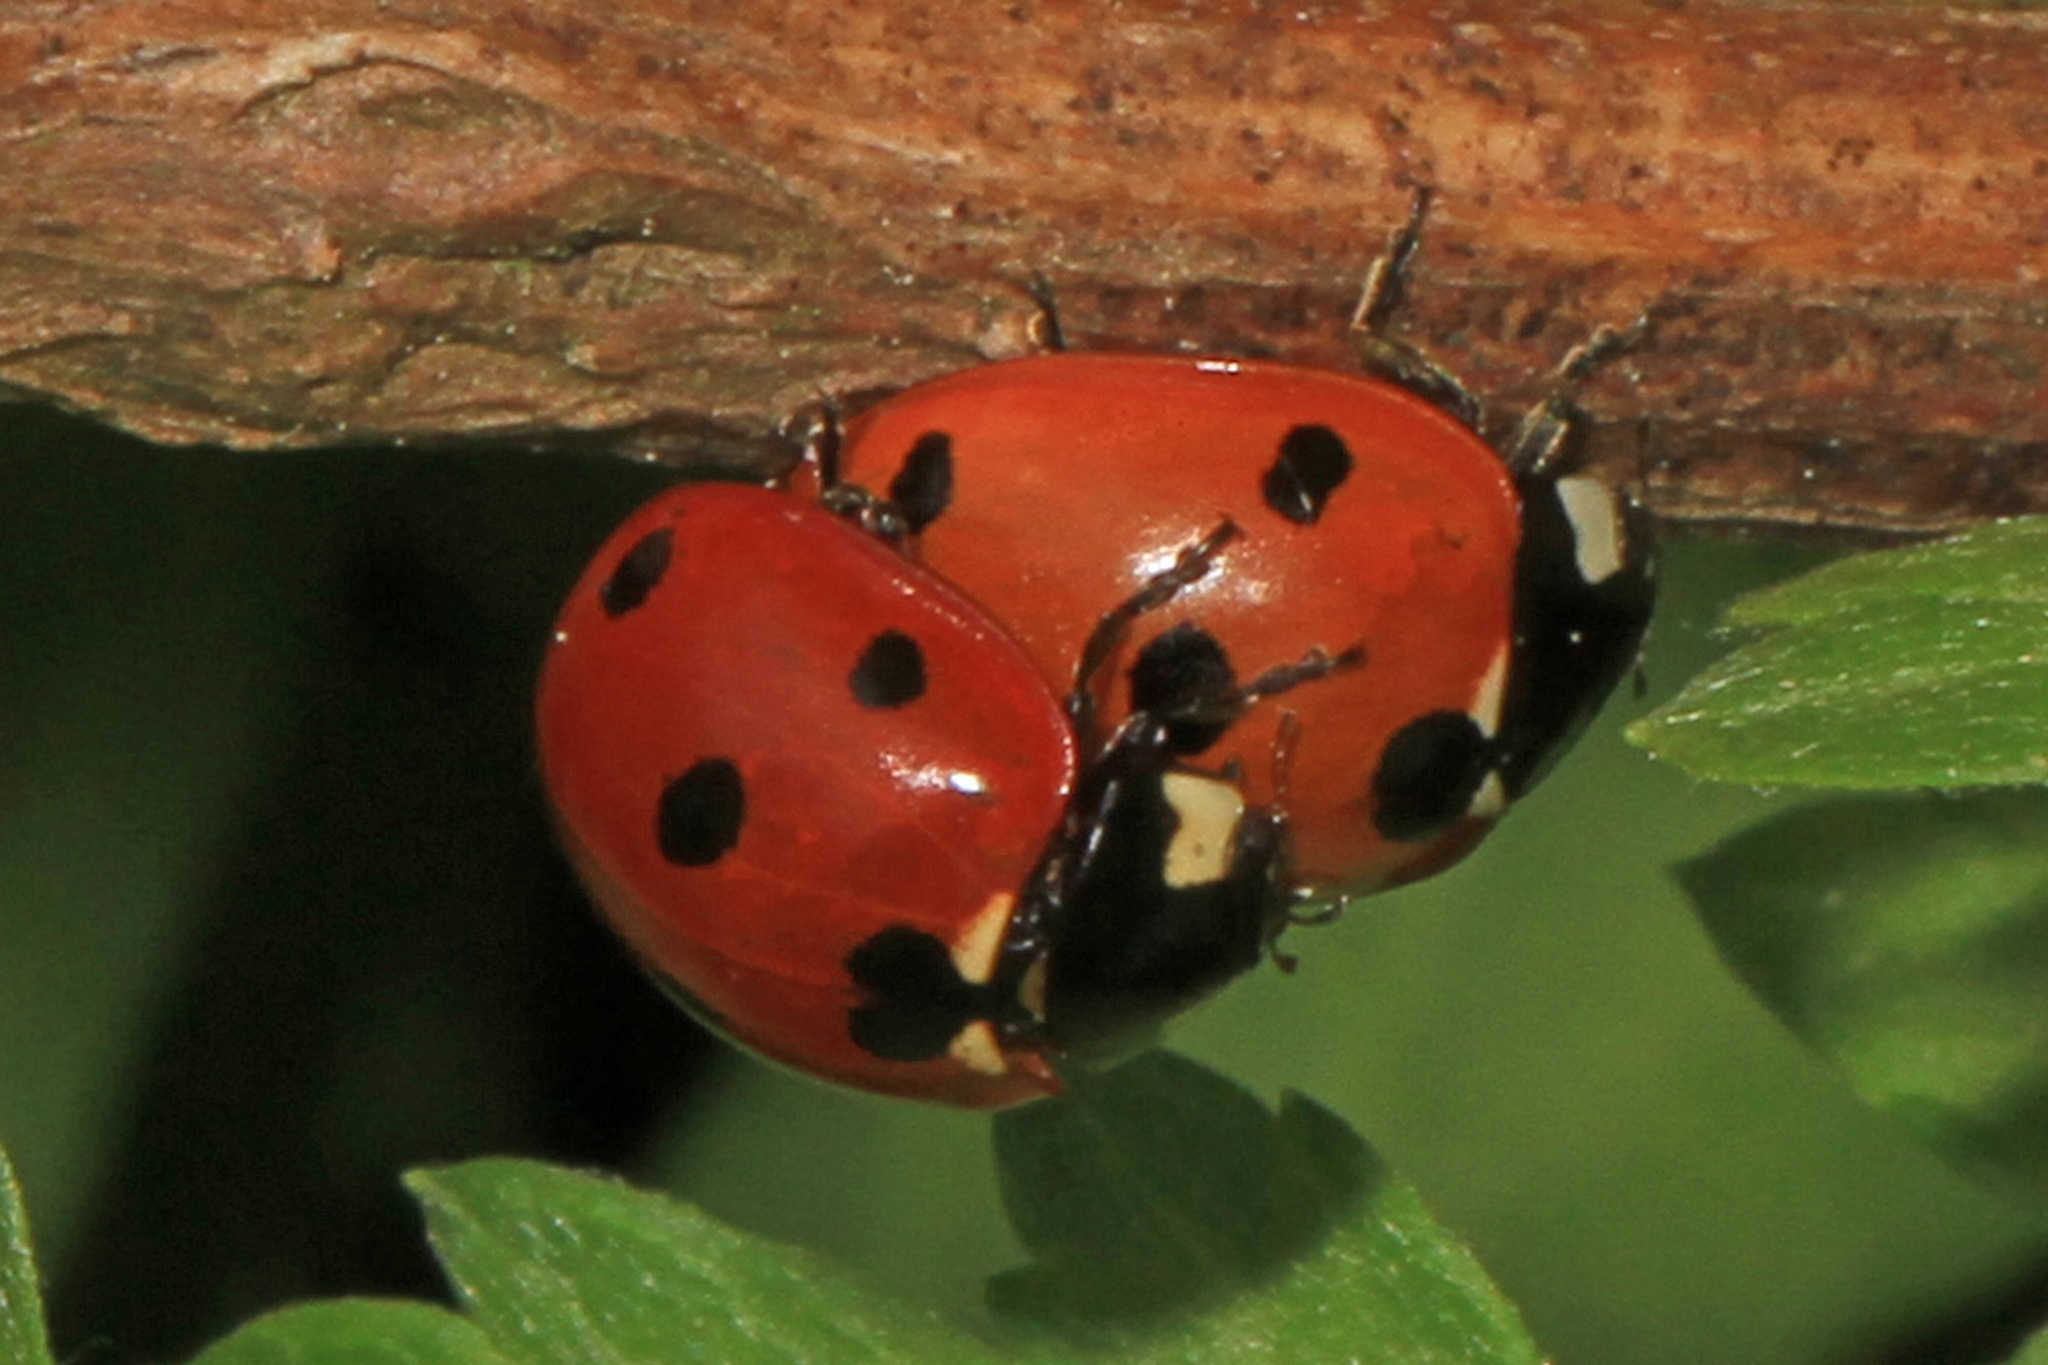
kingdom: Animalia
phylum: Arthropoda
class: Insecta
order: Coleoptera
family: Coccinellidae
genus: Coccinella
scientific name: Coccinella septempunctata
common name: Sevenspotted lady beetle
